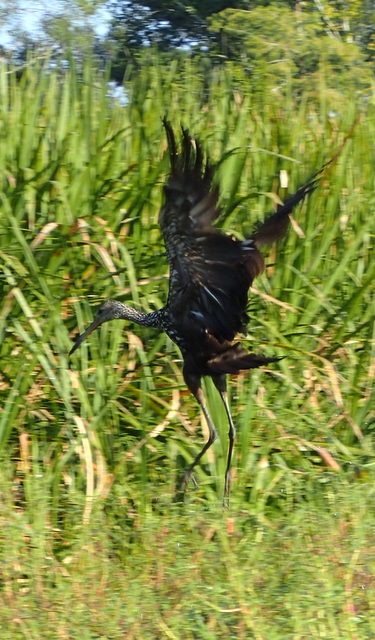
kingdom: Animalia
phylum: Chordata
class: Aves
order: Gruiformes
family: Aramidae
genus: Aramus
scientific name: Aramus guarauna
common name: Limpkin
